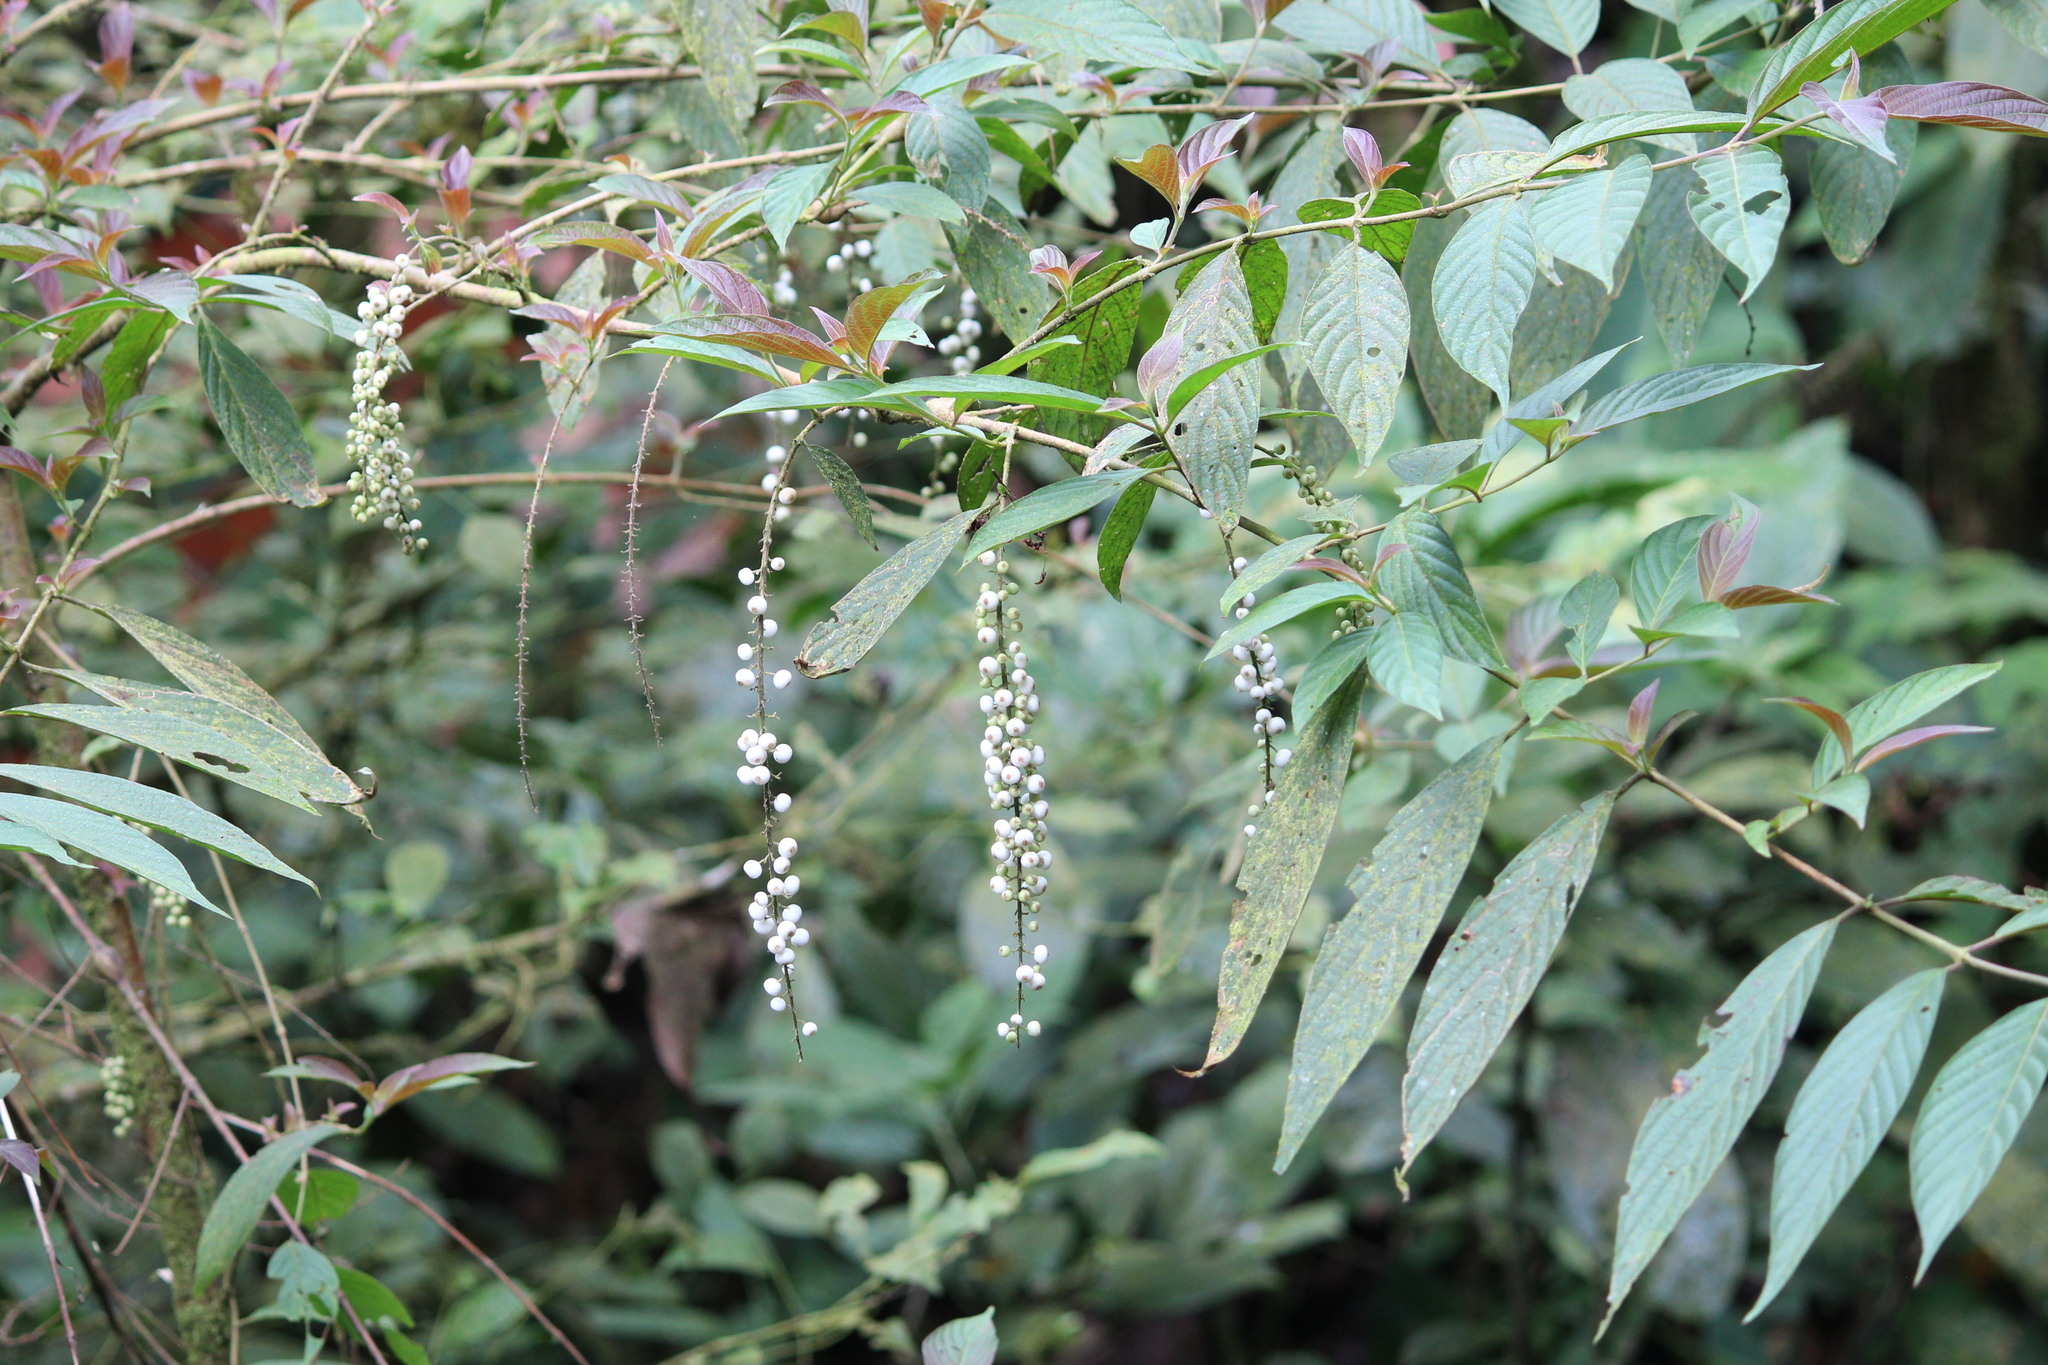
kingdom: Plantae
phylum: Tracheophyta
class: Magnoliopsida
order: Gentianales
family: Rubiaceae
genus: Gonzalagunia
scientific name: Gonzalagunia rosea
